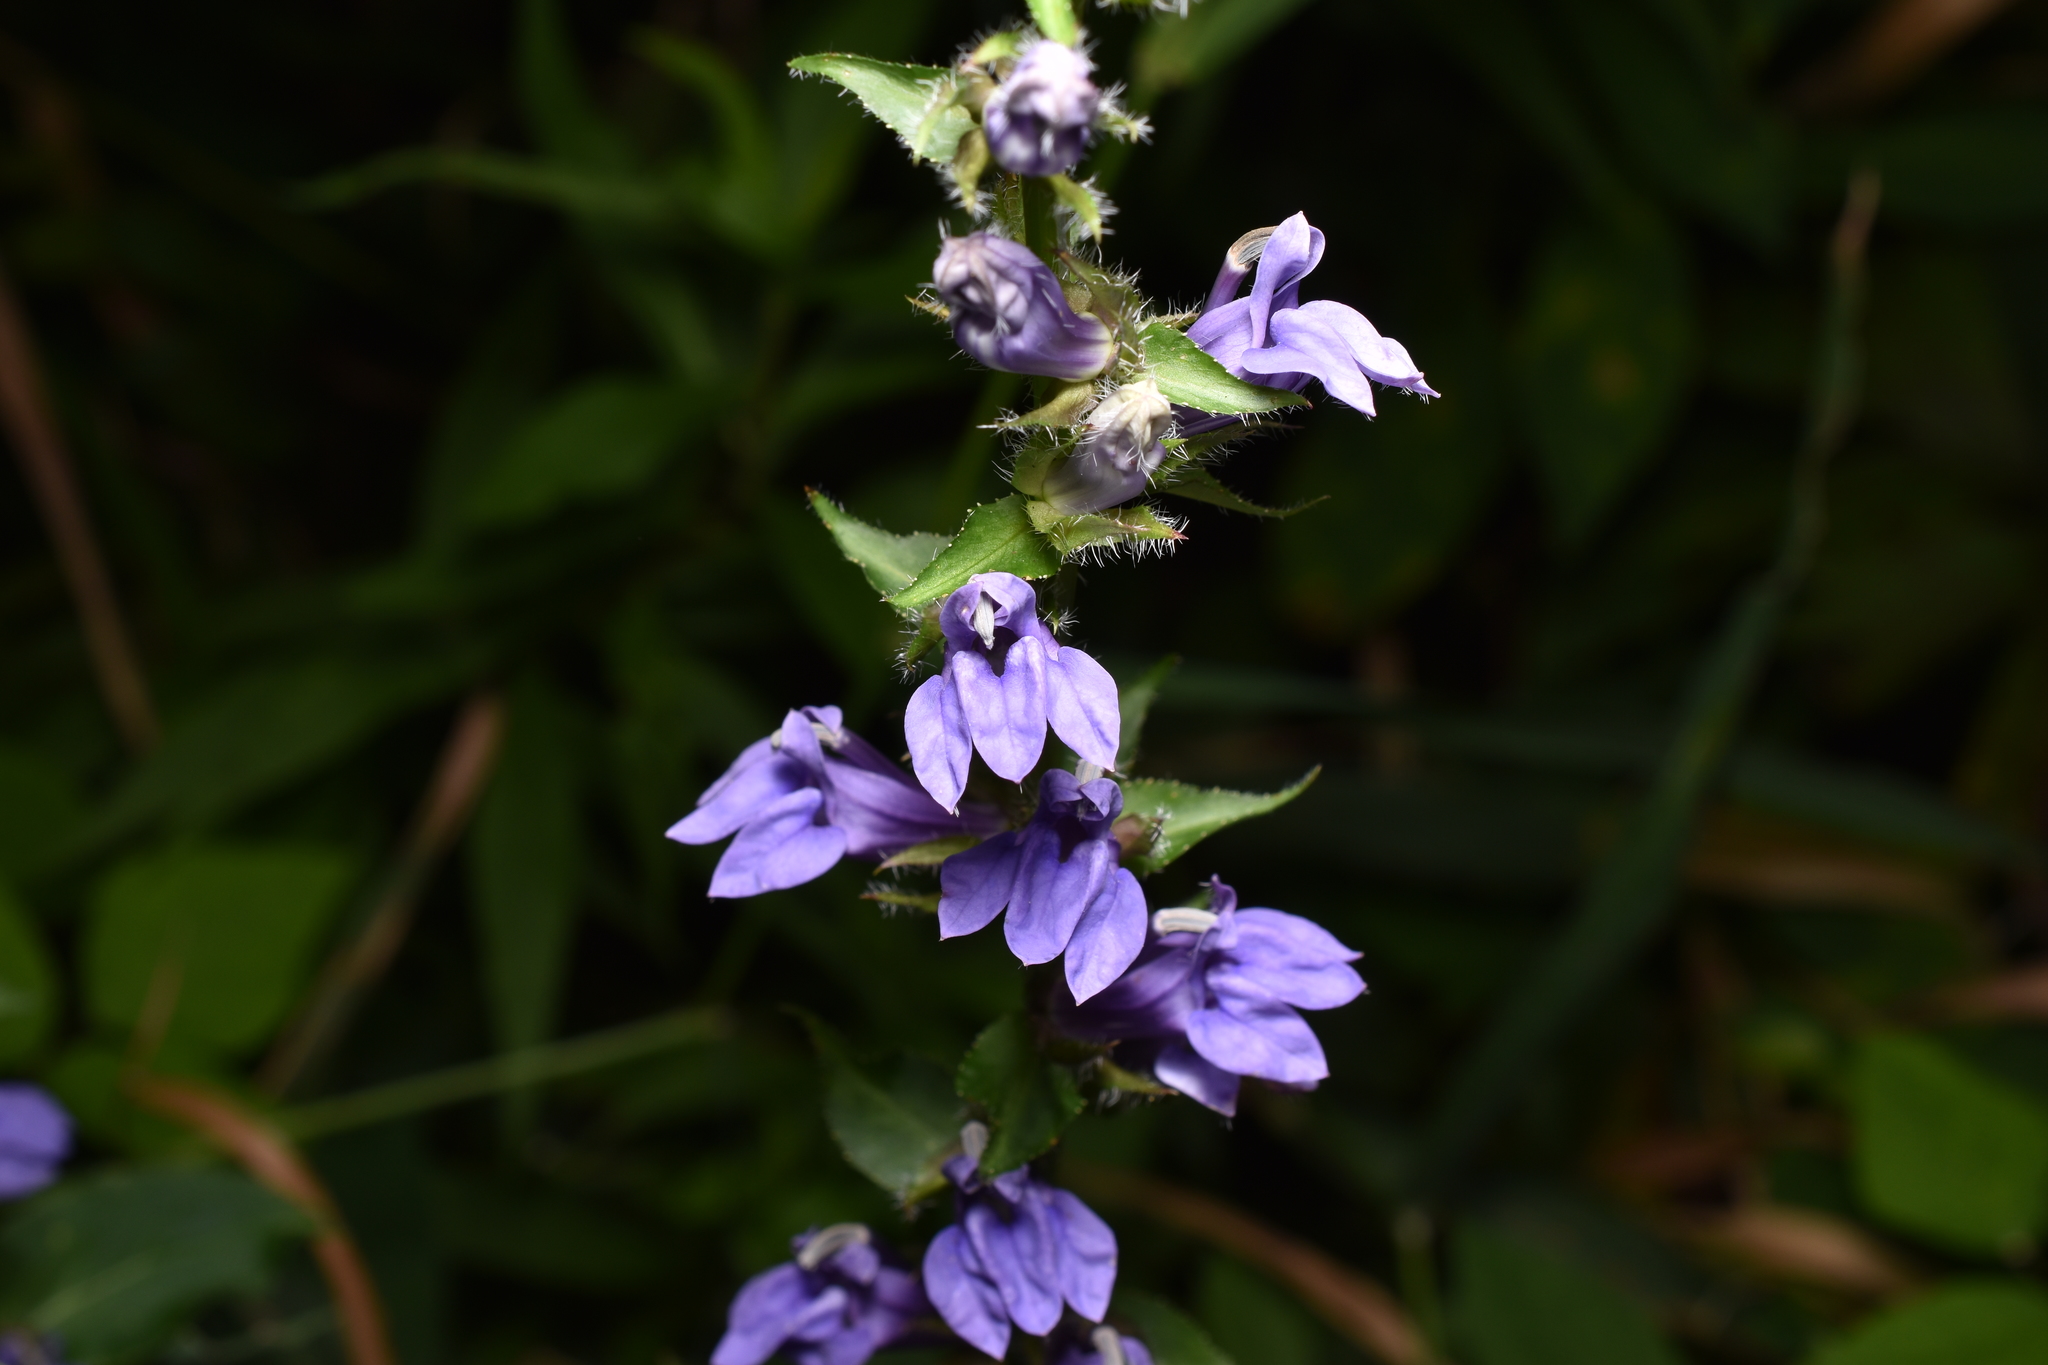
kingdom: Plantae
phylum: Tracheophyta
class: Magnoliopsida
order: Asterales
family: Campanulaceae
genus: Lobelia
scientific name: Lobelia siphilitica
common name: Great lobelia
